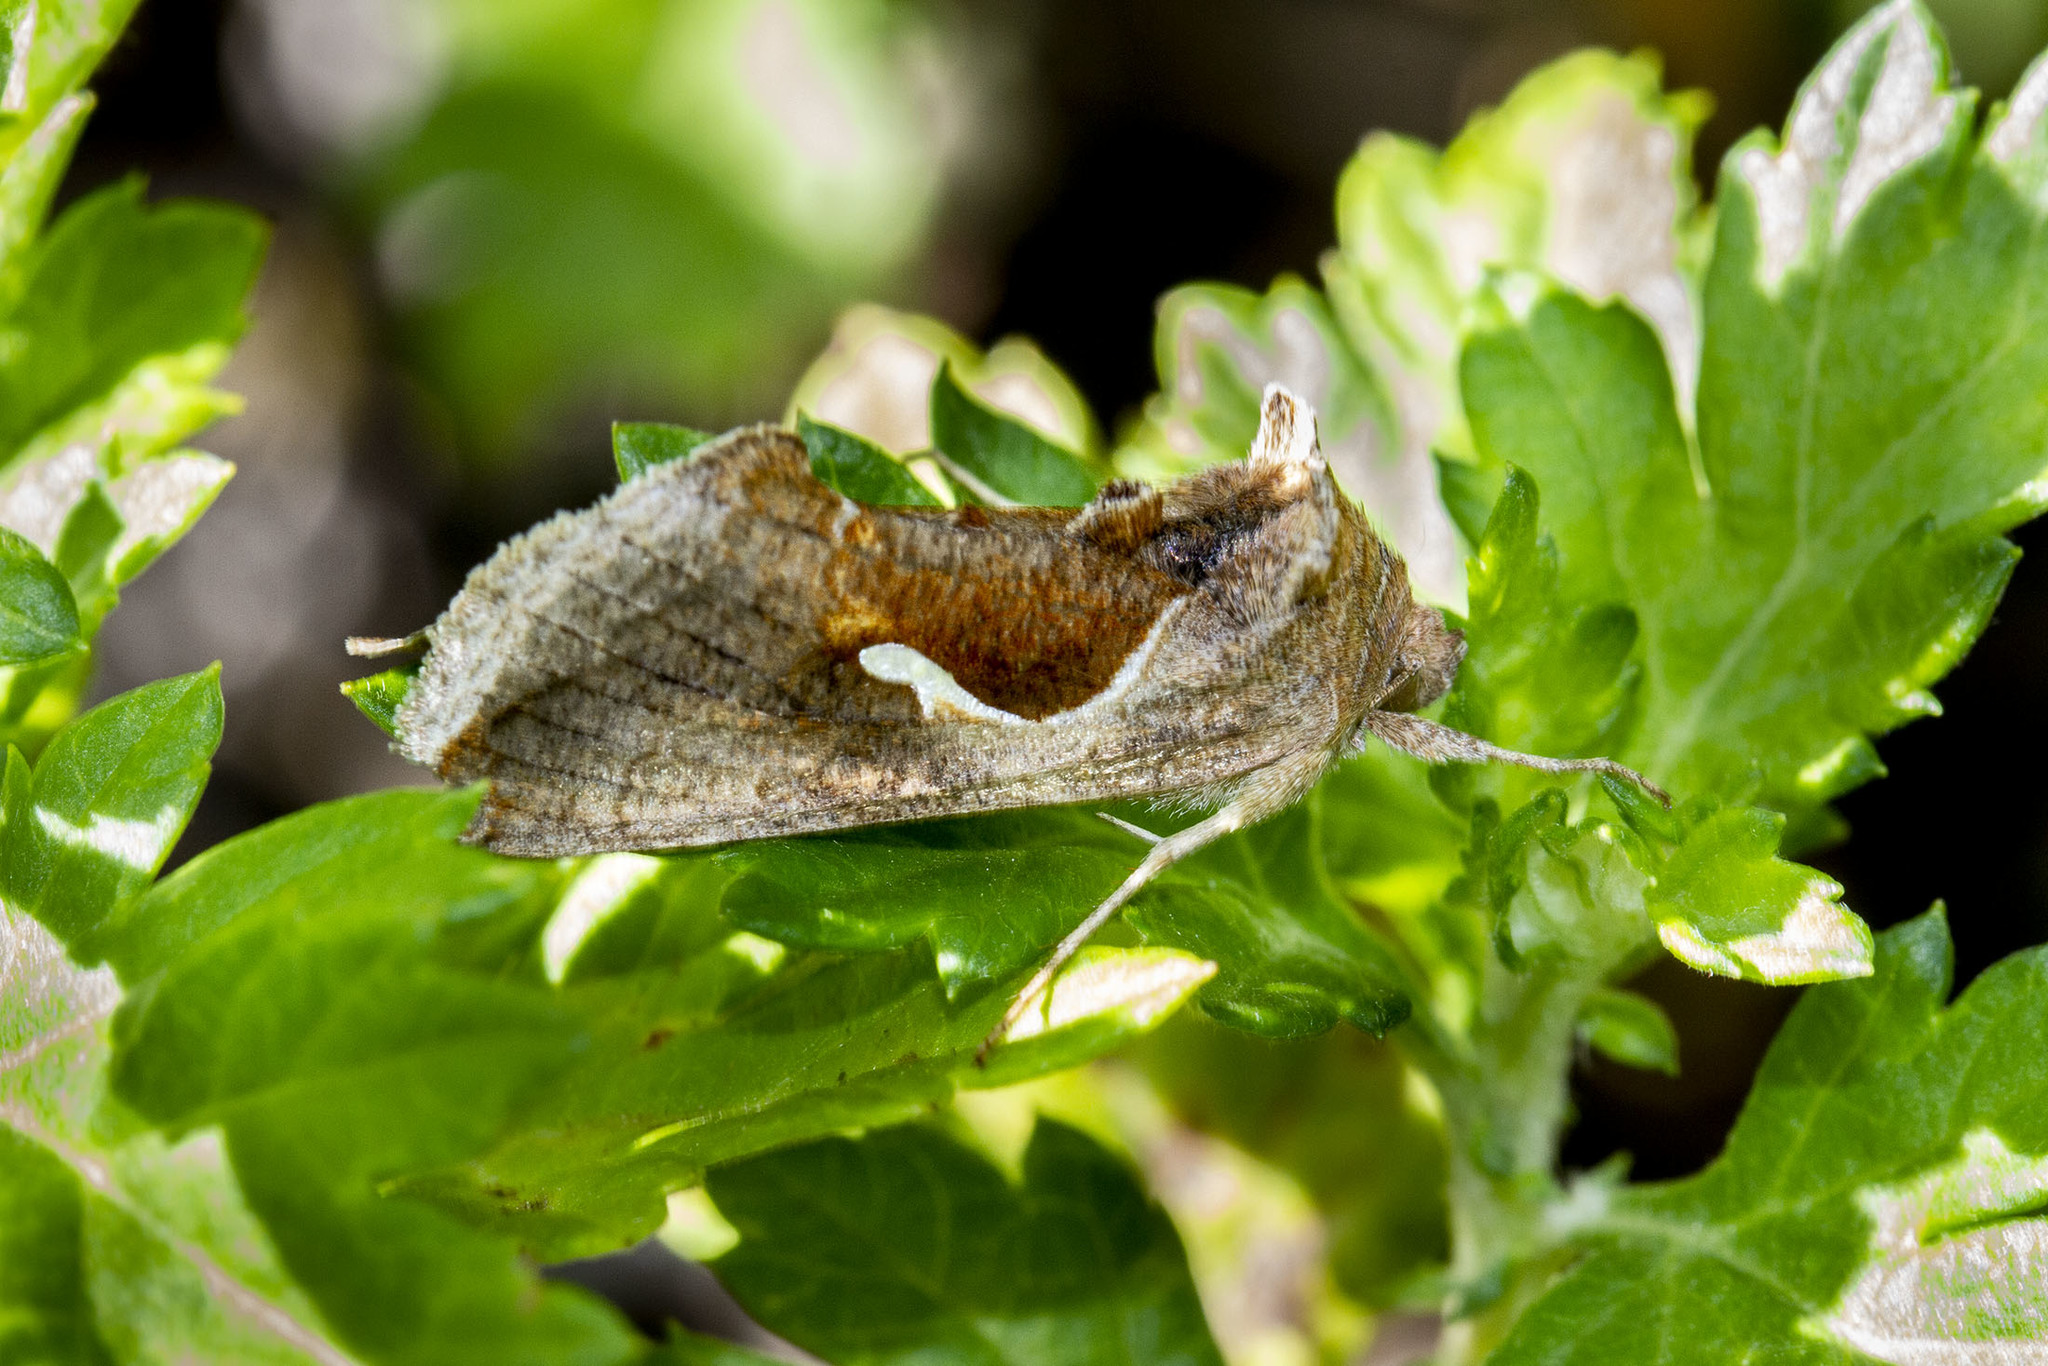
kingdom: Animalia
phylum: Arthropoda
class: Insecta
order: Lepidoptera
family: Noctuidae
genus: Anagrapha
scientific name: Anagrapha falcifera
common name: Celery looper
